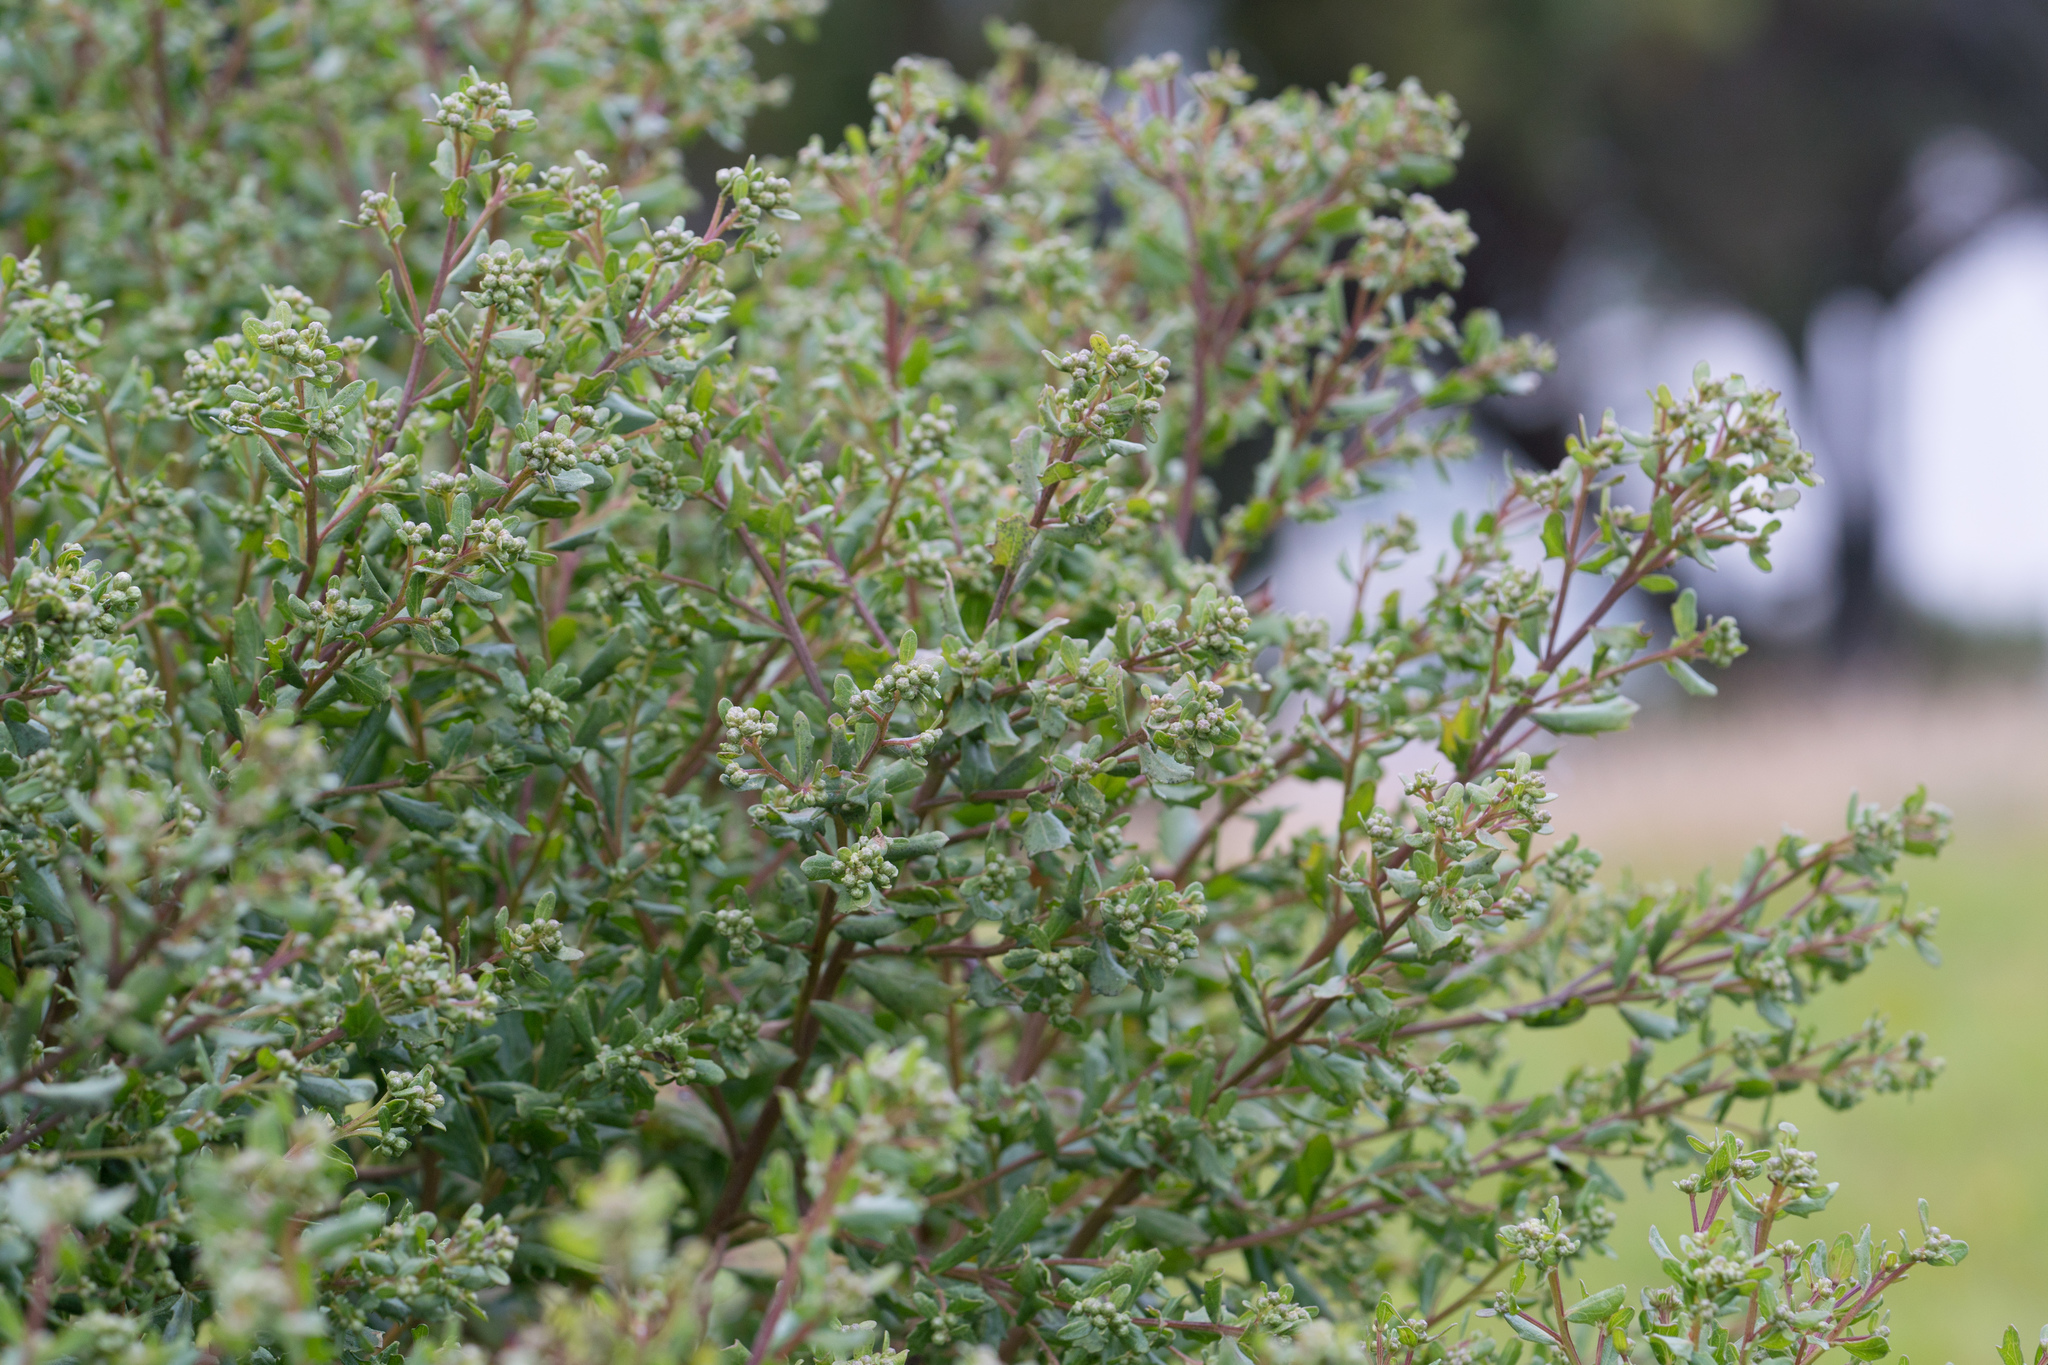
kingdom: Plantae
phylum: Tracheophyta
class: Magnoliopsida
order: Asterales
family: Asteraceae
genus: Baccharis
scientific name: Baccharis pilularis
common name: Coyotebrush
